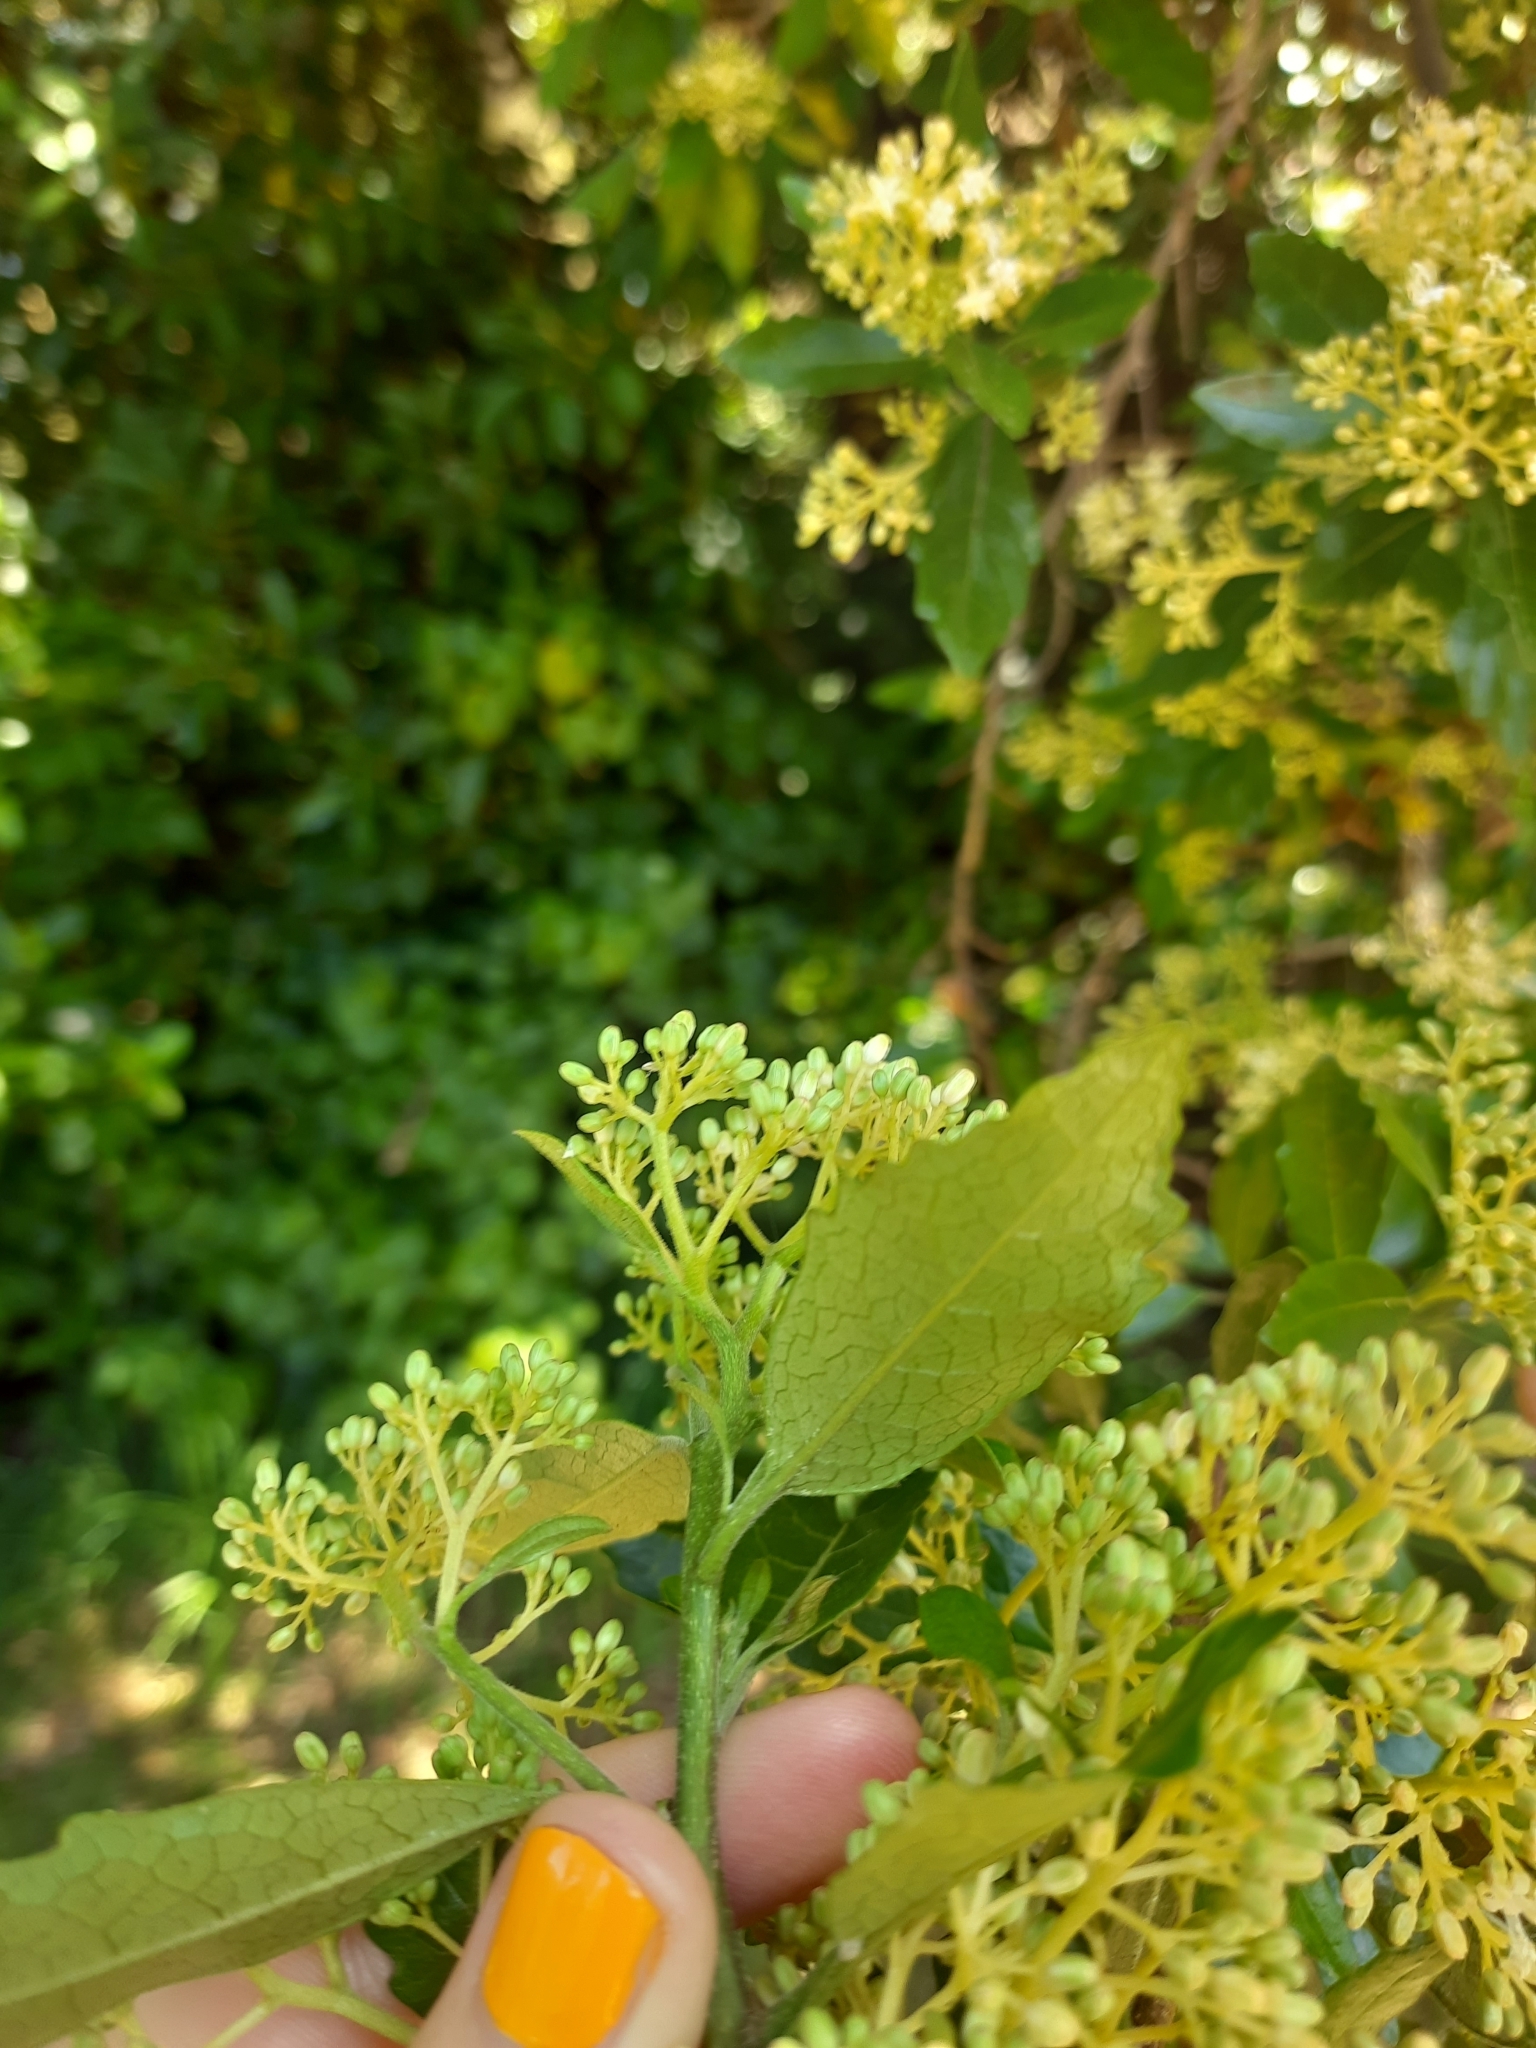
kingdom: Plantae
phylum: Tracheophyta
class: Magnoliopsida
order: Apiales
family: Pennantiaceae
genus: Pennantia
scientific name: Pennantia corymbosa
